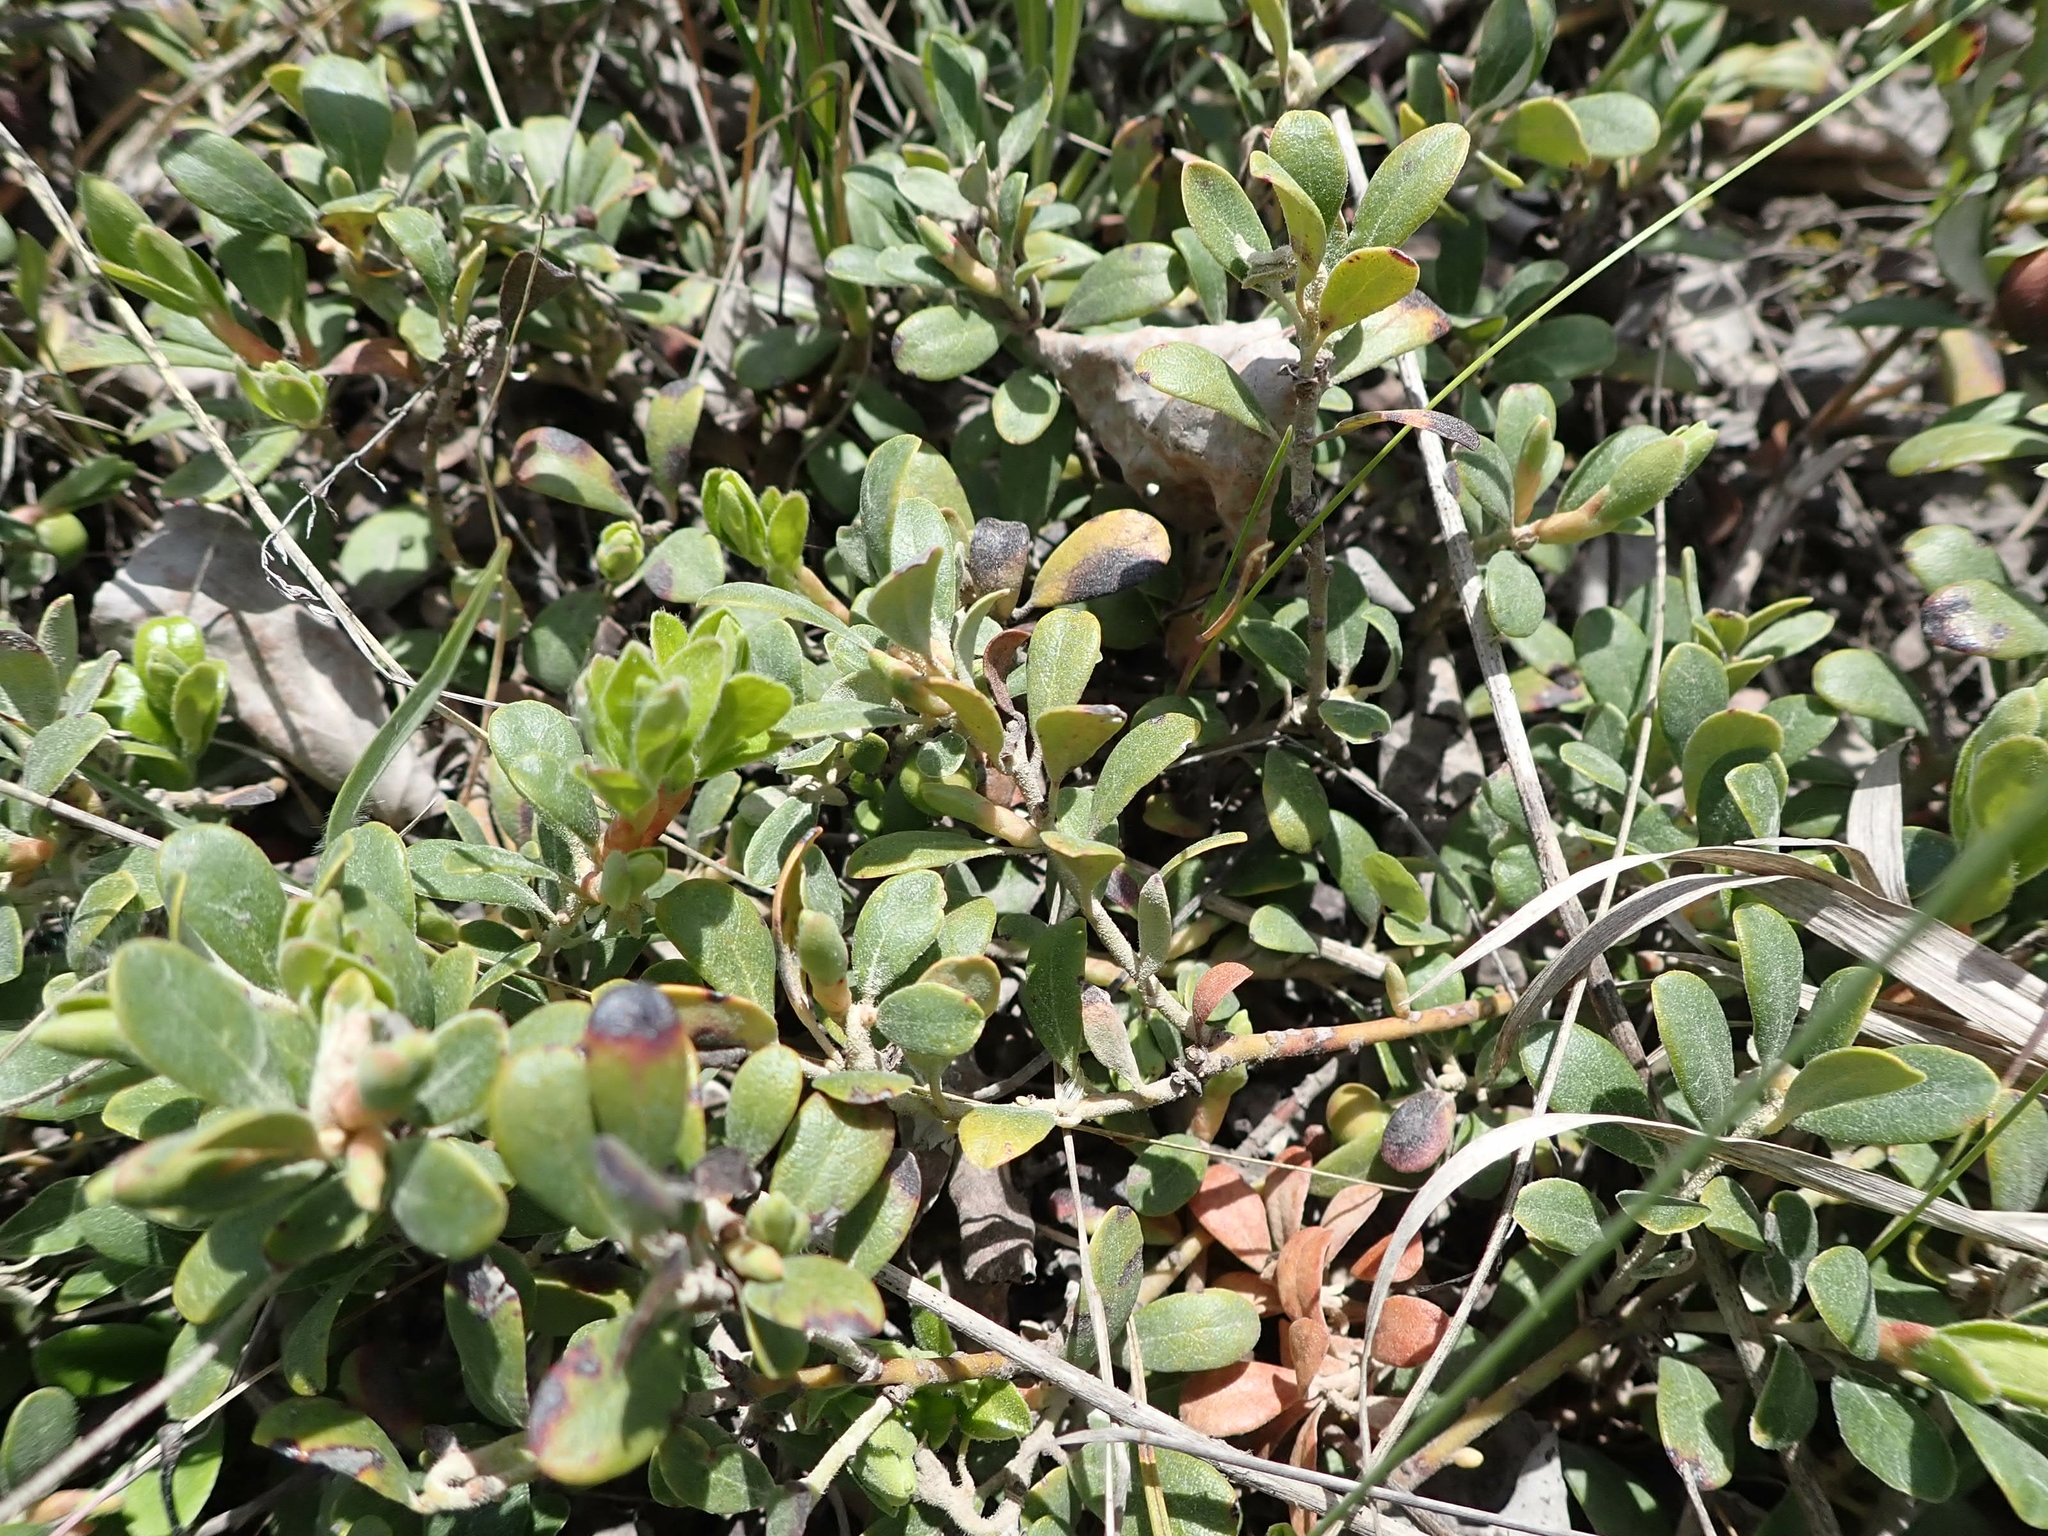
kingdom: Plantae
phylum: Tracheophyta
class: Magnoliopsida
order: Ericales
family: Ericaceae
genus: Arctostaphylos
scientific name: Arctostaphylos uva-ursi
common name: Bearberry
